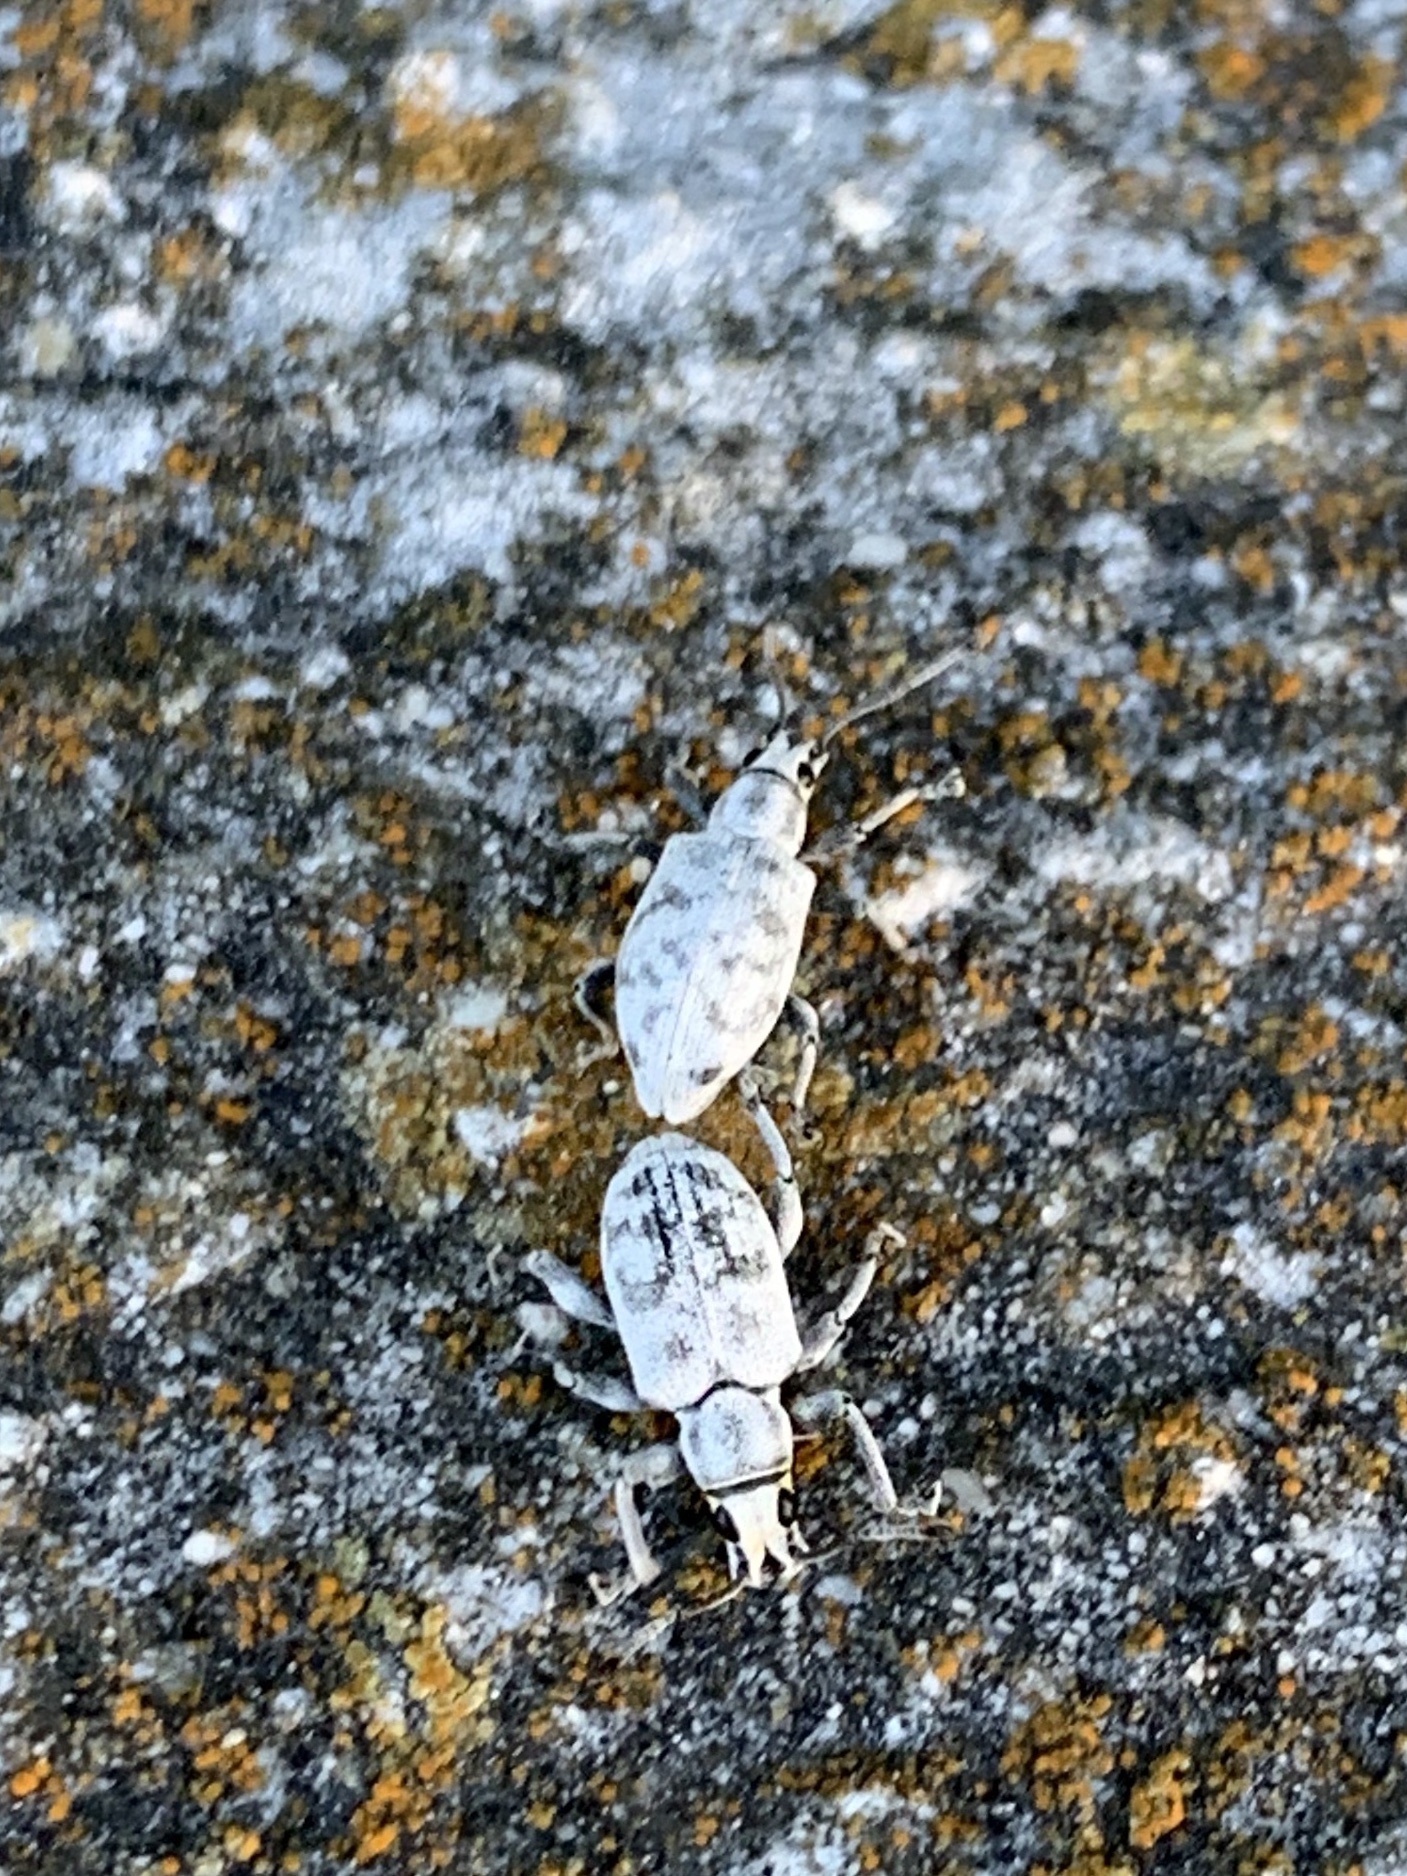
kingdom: Animalia
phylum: Arthropoda
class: Insecta
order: Coleoptera
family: Curculionidae
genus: Myllocerus
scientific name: Myllocerus undecimpustulatus
